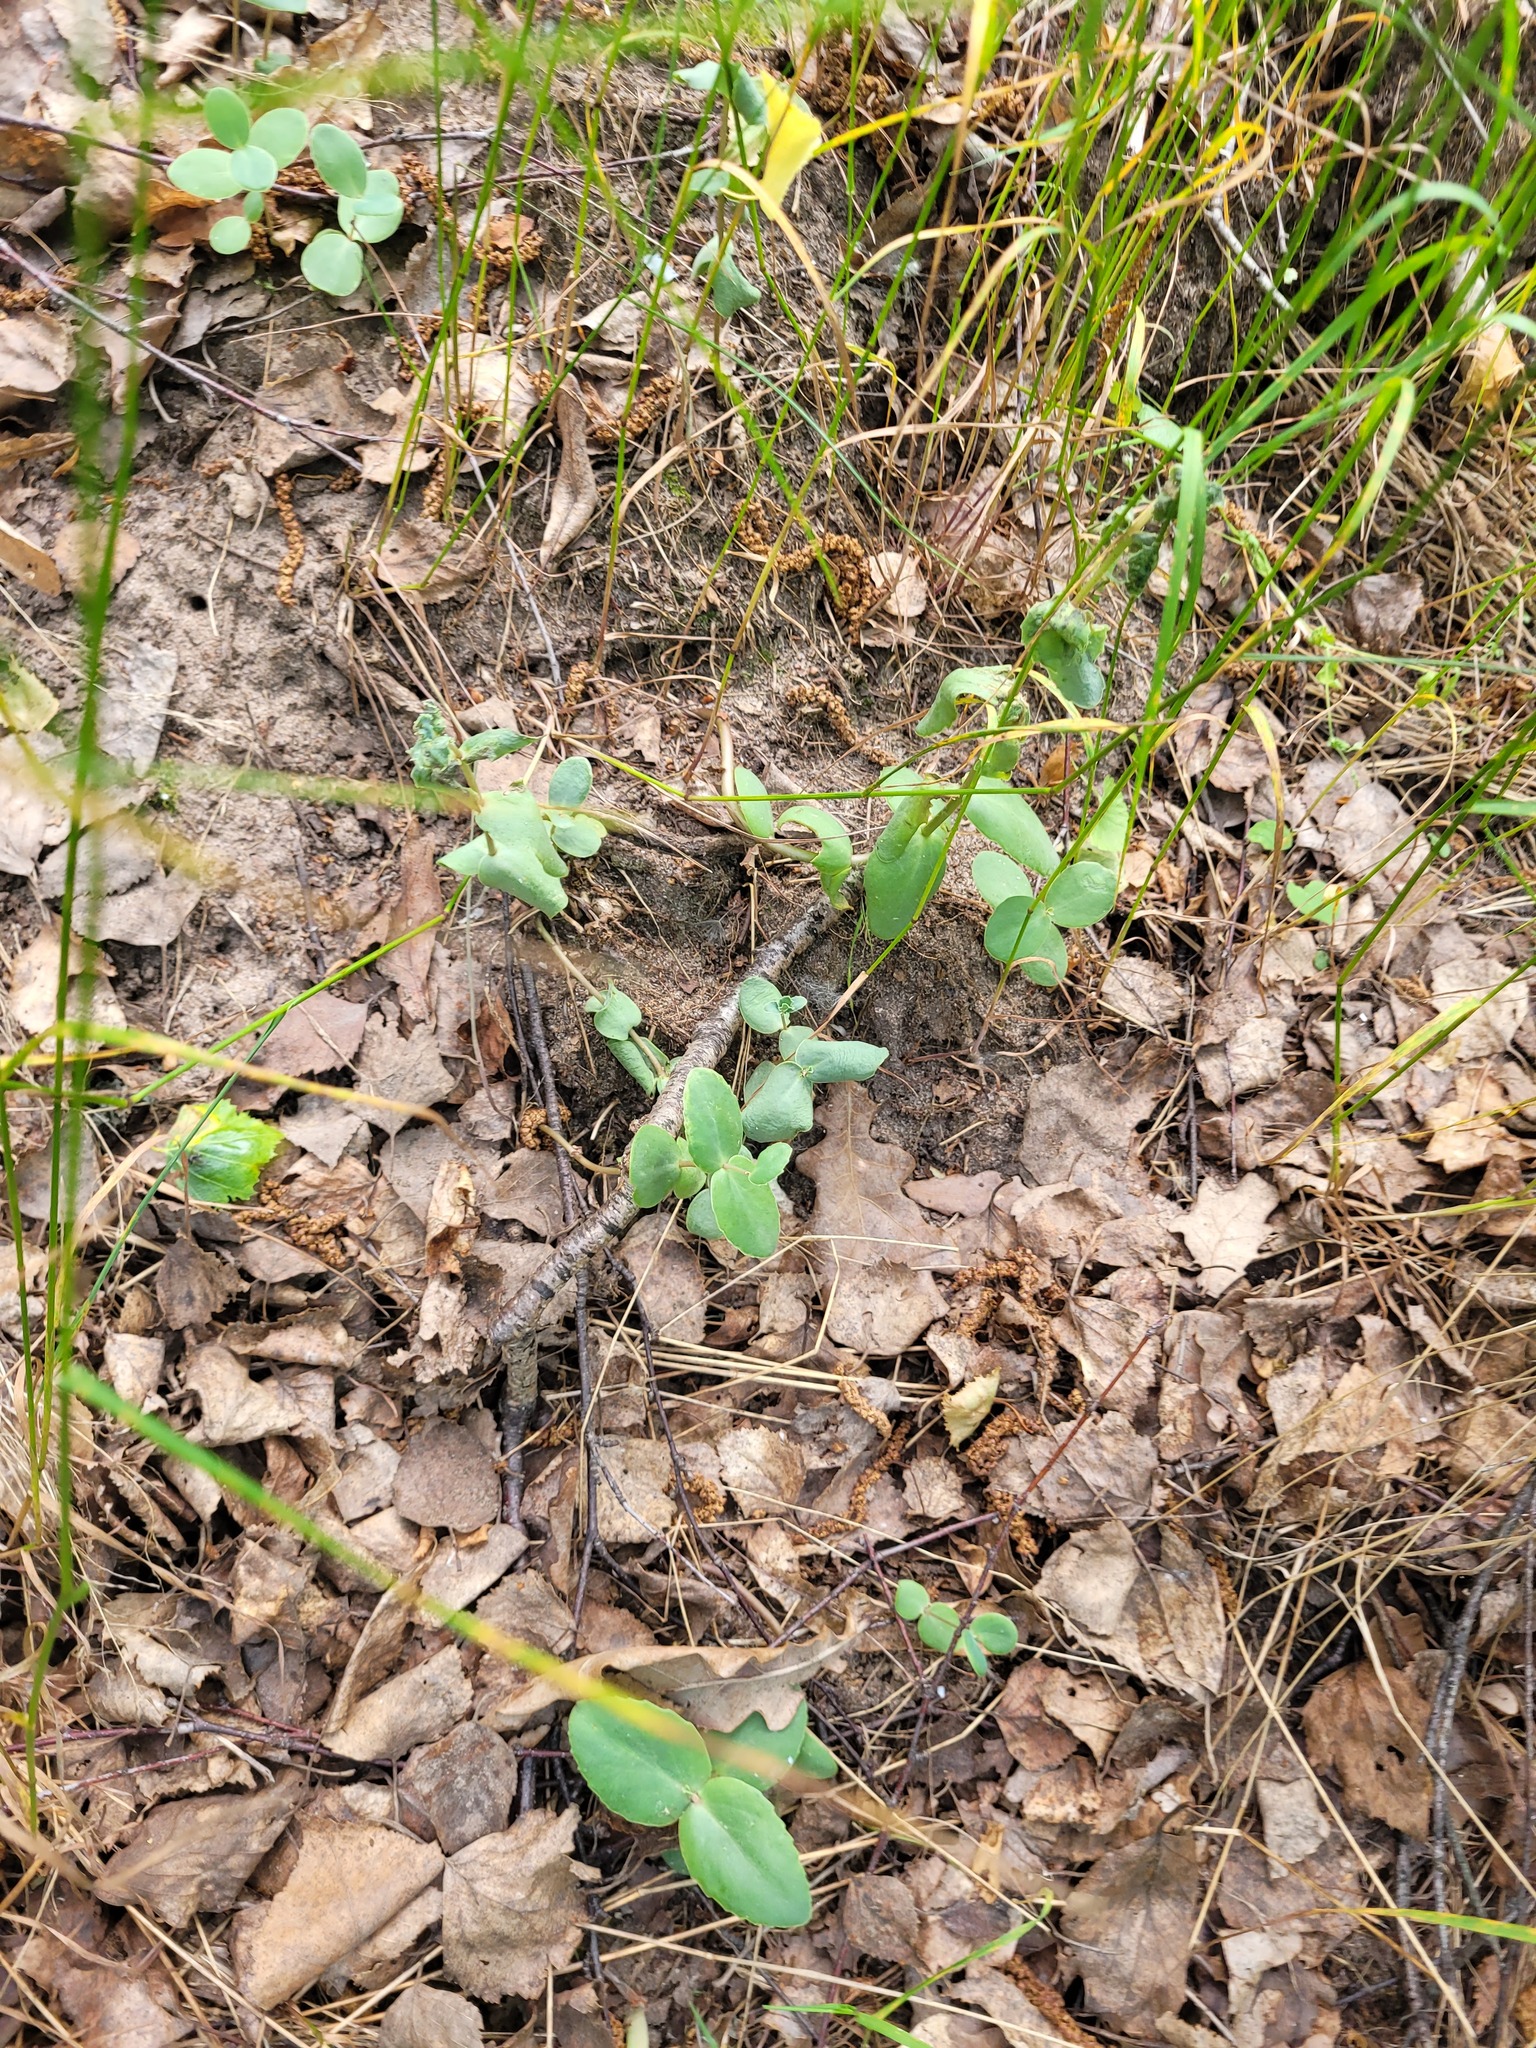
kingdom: Plantae
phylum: Tracheophyta
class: Magnoliopsida
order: Saxifragales
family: Crassulaceae
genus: Hylotelephium
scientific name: Hylotelephium maximum
